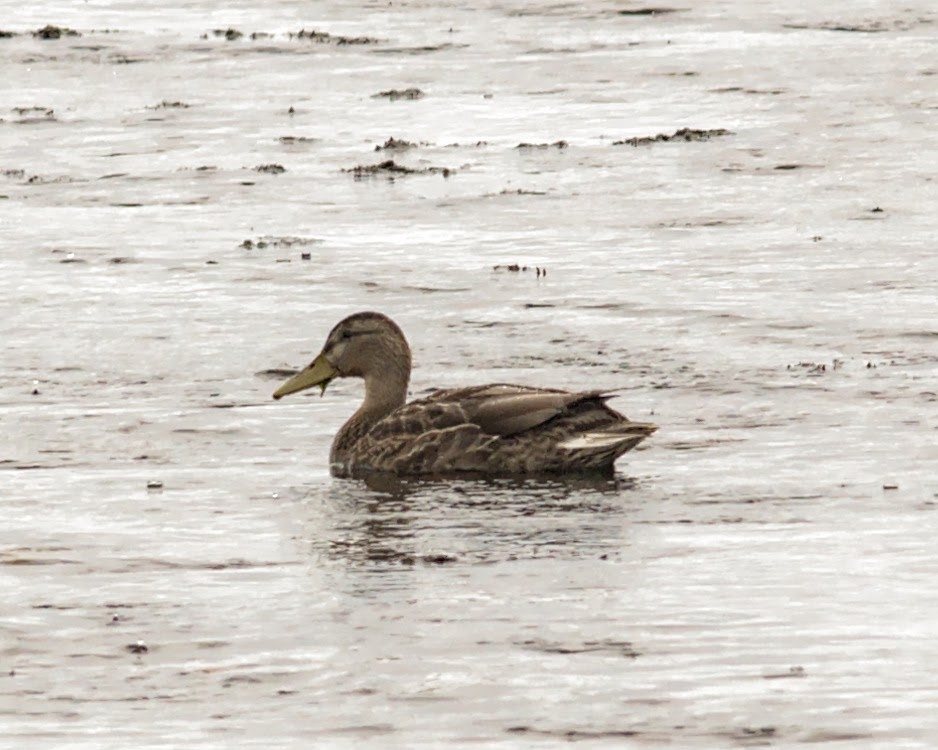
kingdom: Animalia
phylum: Chordata
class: Aves
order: Anseriformes
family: Anatidae
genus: Anas
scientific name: Anas platyrhynchos
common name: Mallard
